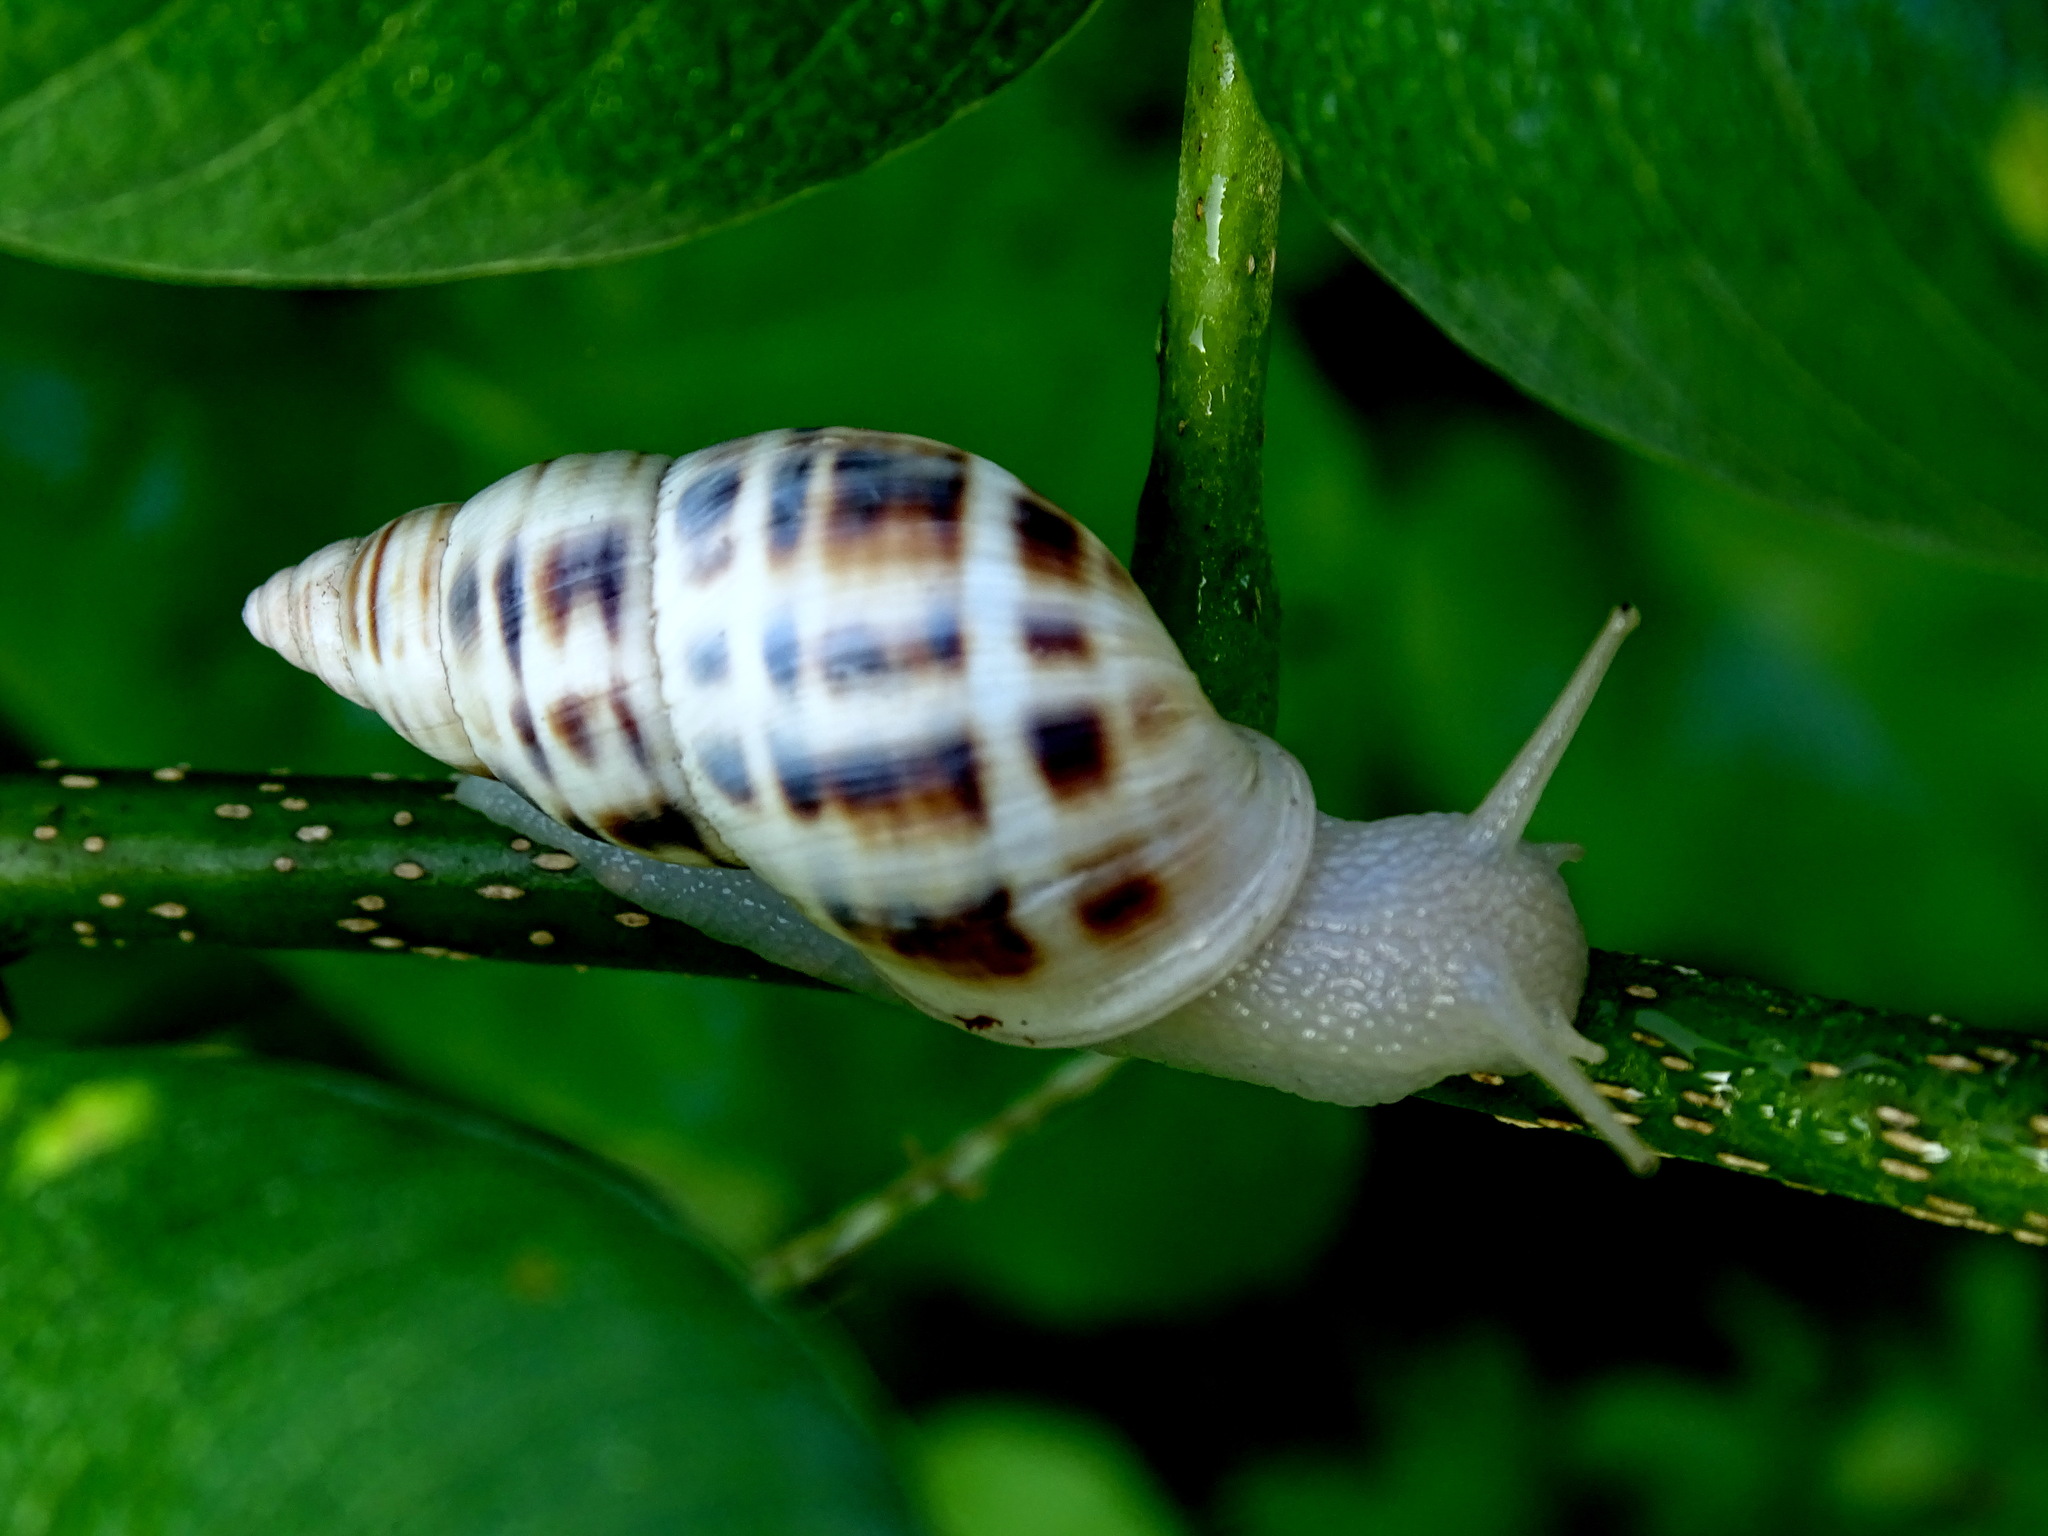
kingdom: Animalia
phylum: Mollusca
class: Gastropoda
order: Stylommatophora
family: Bulimulidae
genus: Drymaeus
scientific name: Drymaeus serperastrum
